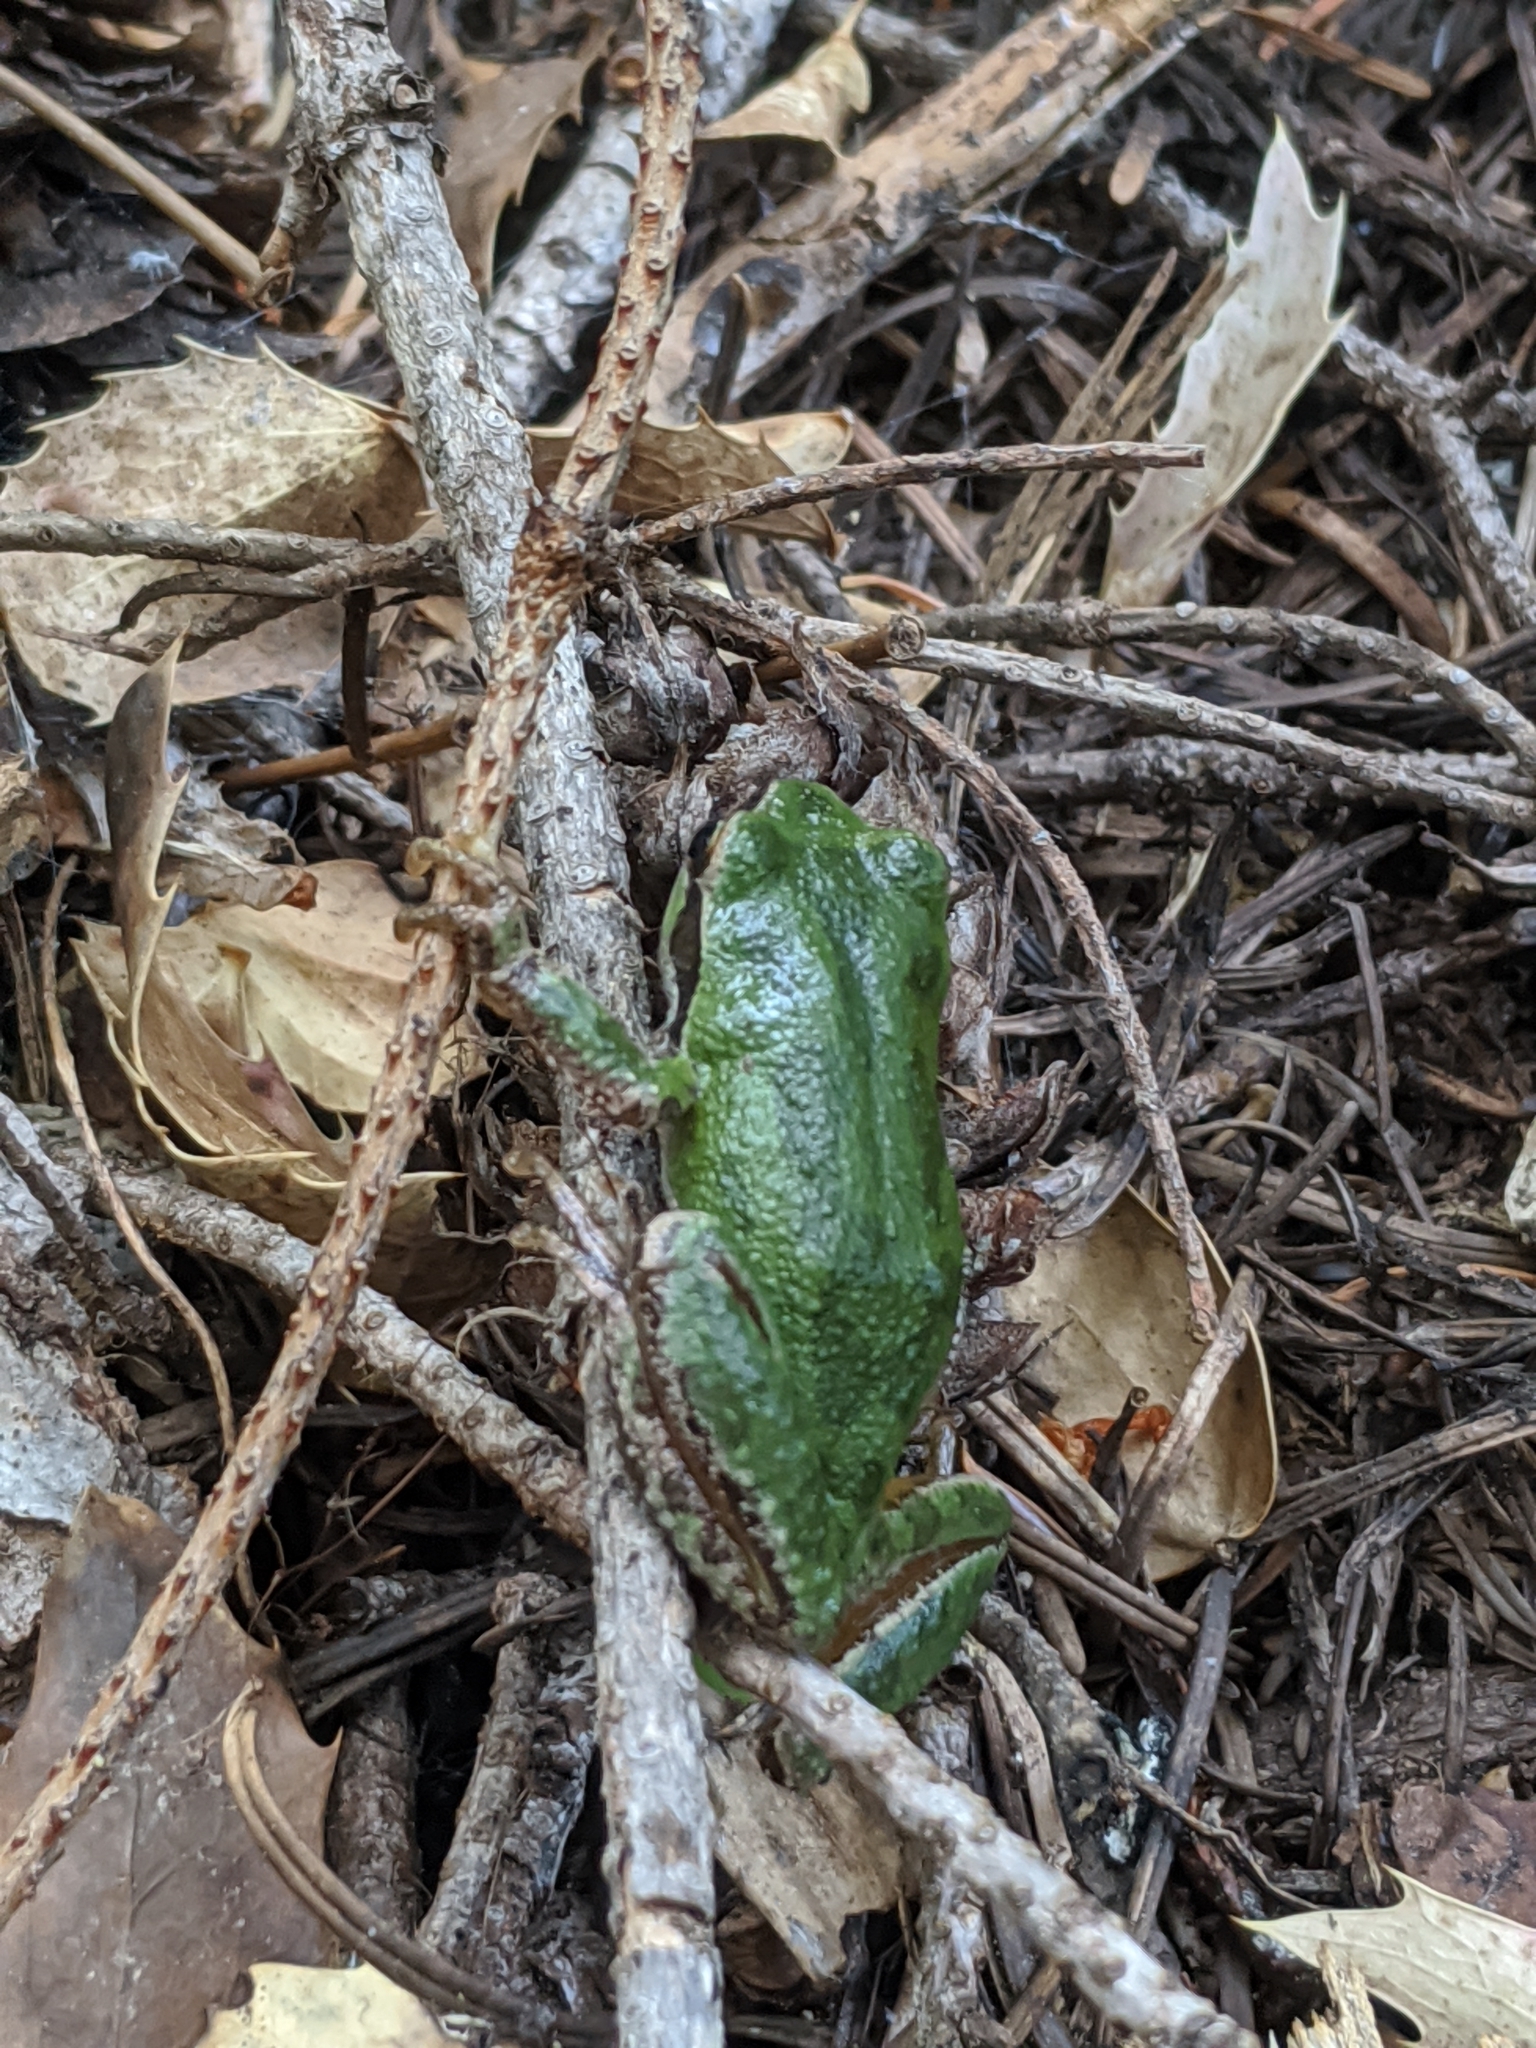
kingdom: Animalia
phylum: Chordata
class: Amphibia
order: Anura
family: Hylidae
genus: Pseudacris
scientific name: Pseudacris regilla
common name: Pacific chorus frog
